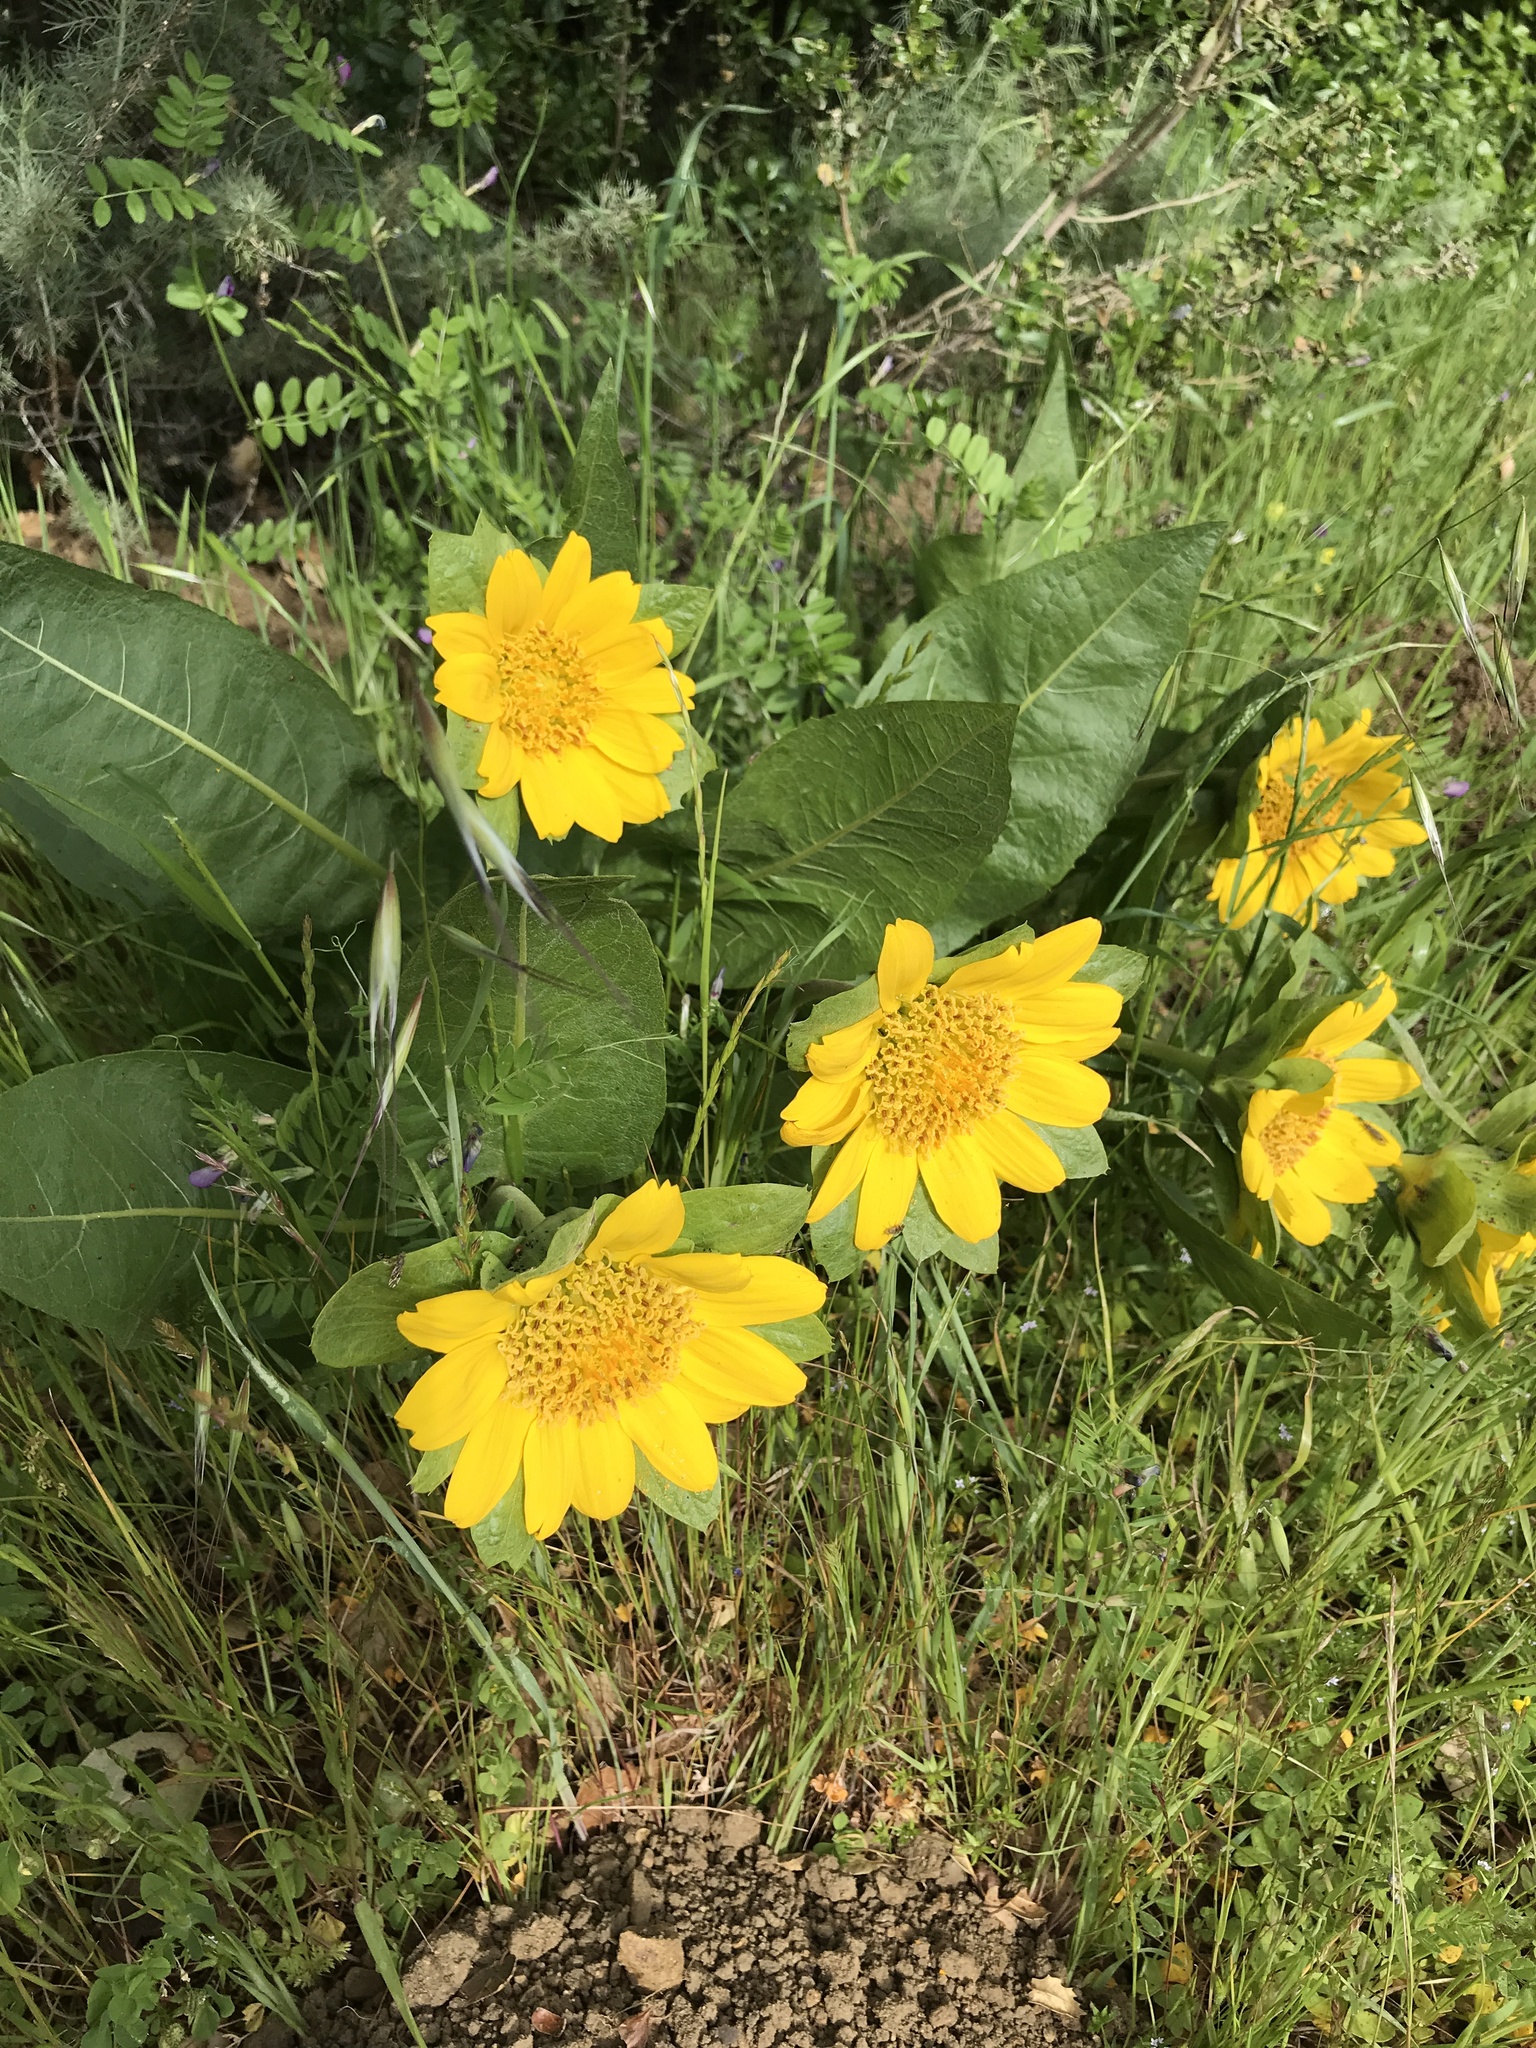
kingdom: Plantae
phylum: Tracheophyta
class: Magnoliopsida
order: Asterales
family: Asteraceae
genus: Wyethia
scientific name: Wyethia glabra
